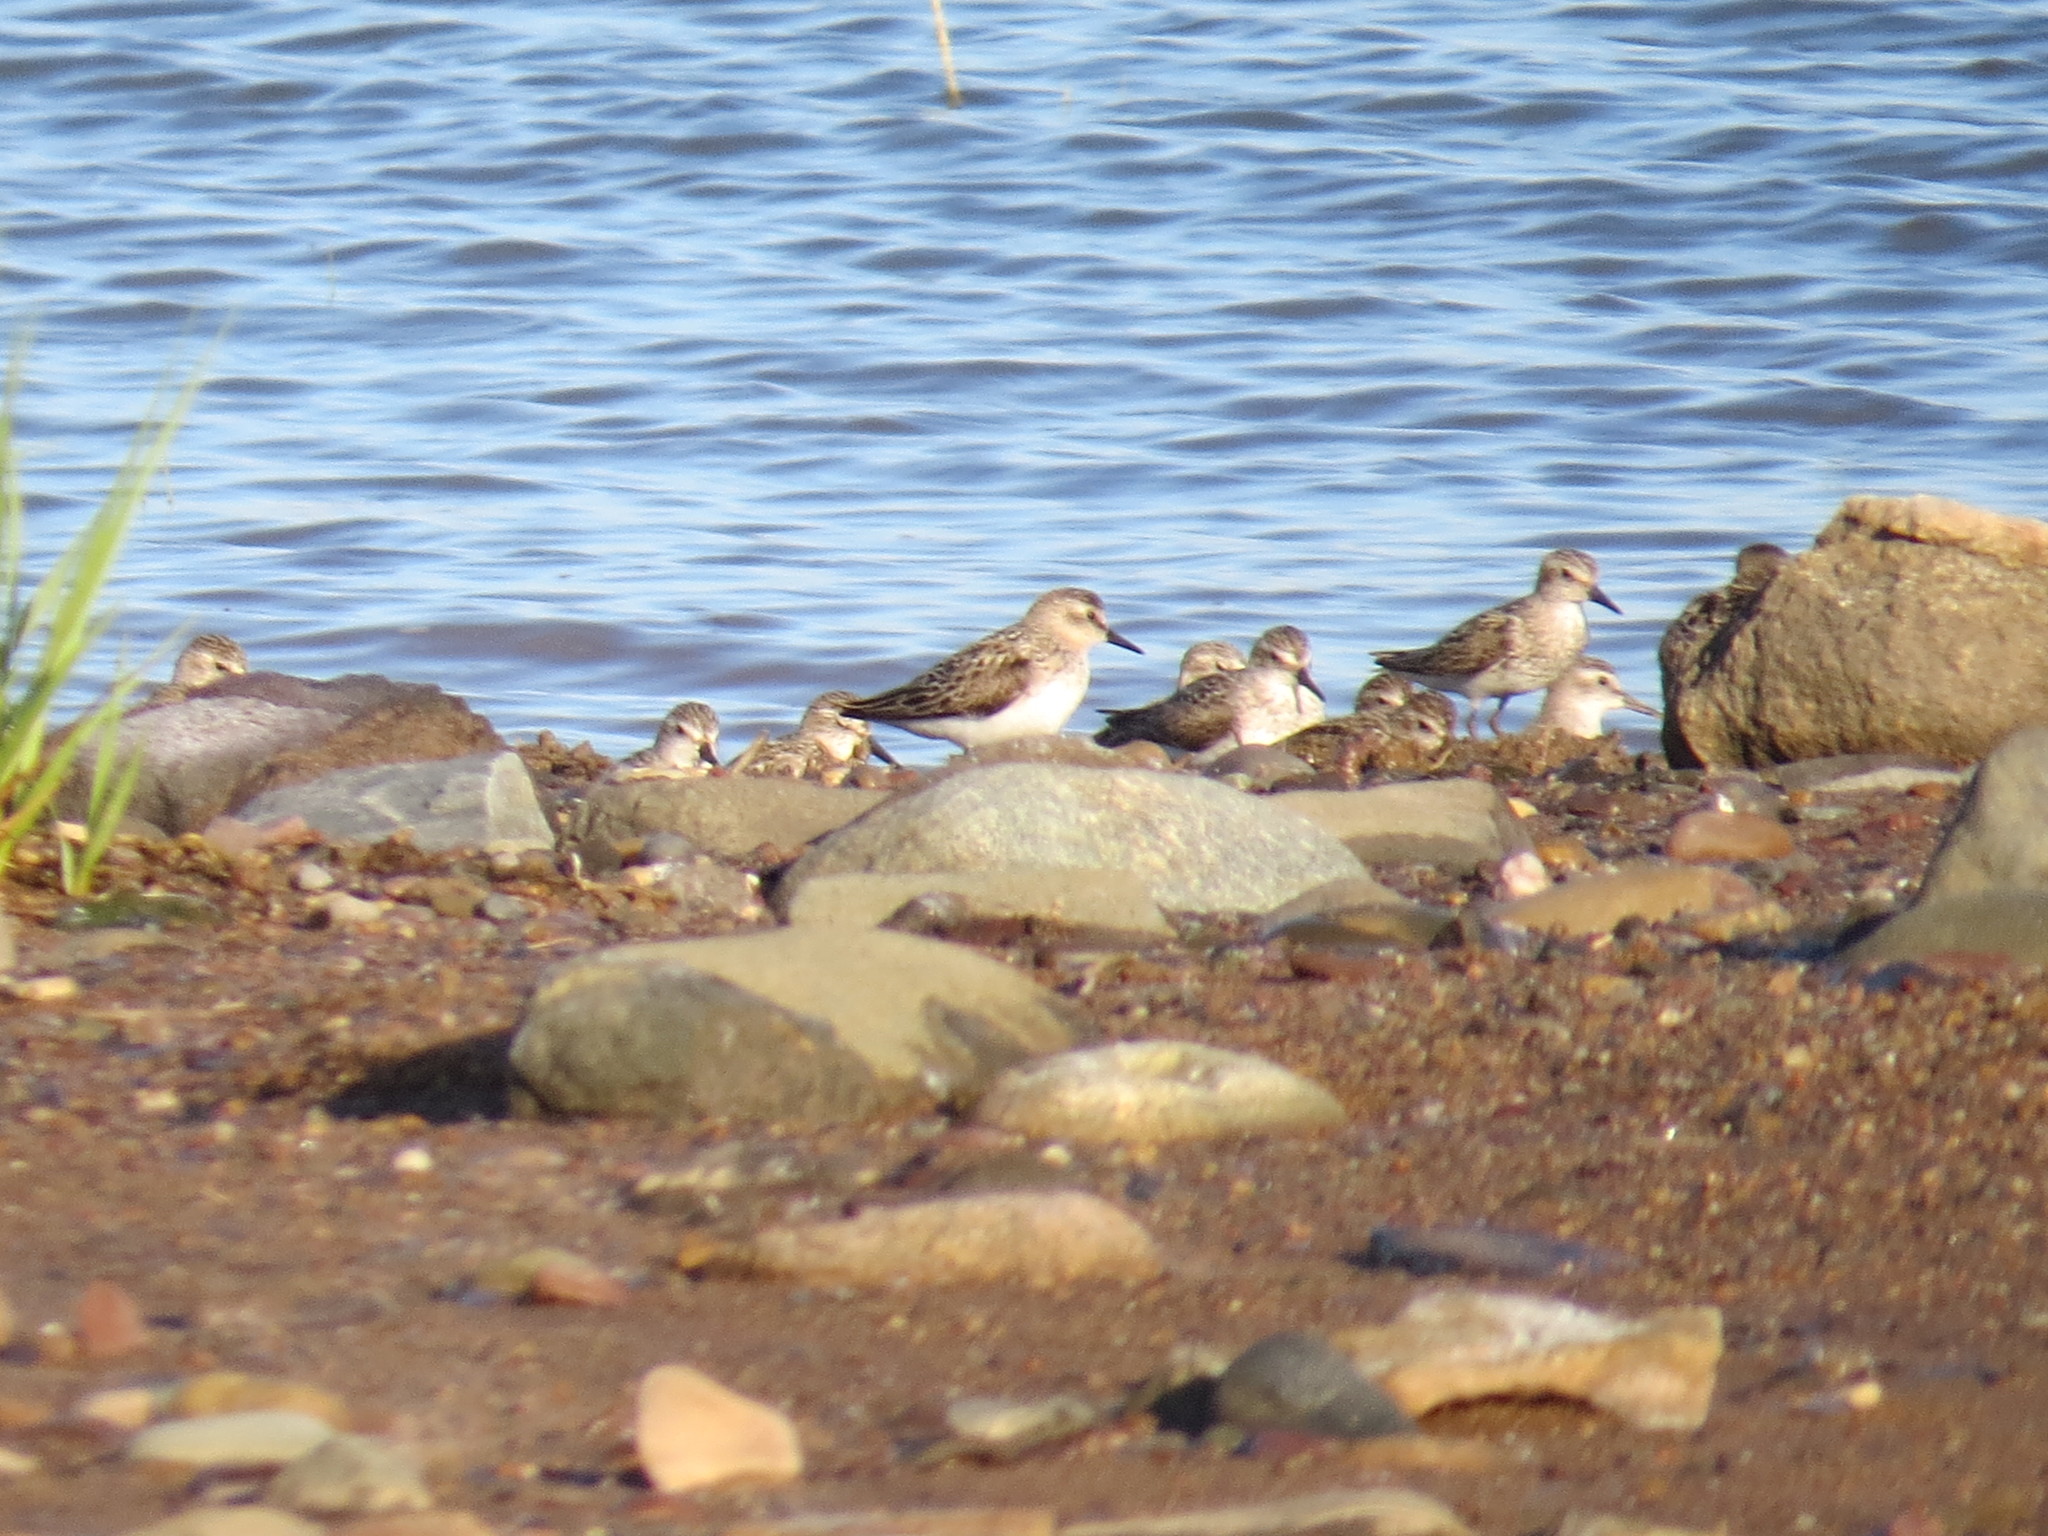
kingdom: Animalia
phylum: Chordata
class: Aves
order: Charadriiformes
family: Scolopacidae
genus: Calidris
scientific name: Calidris pusilla
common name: Semipalmated sandpiper
